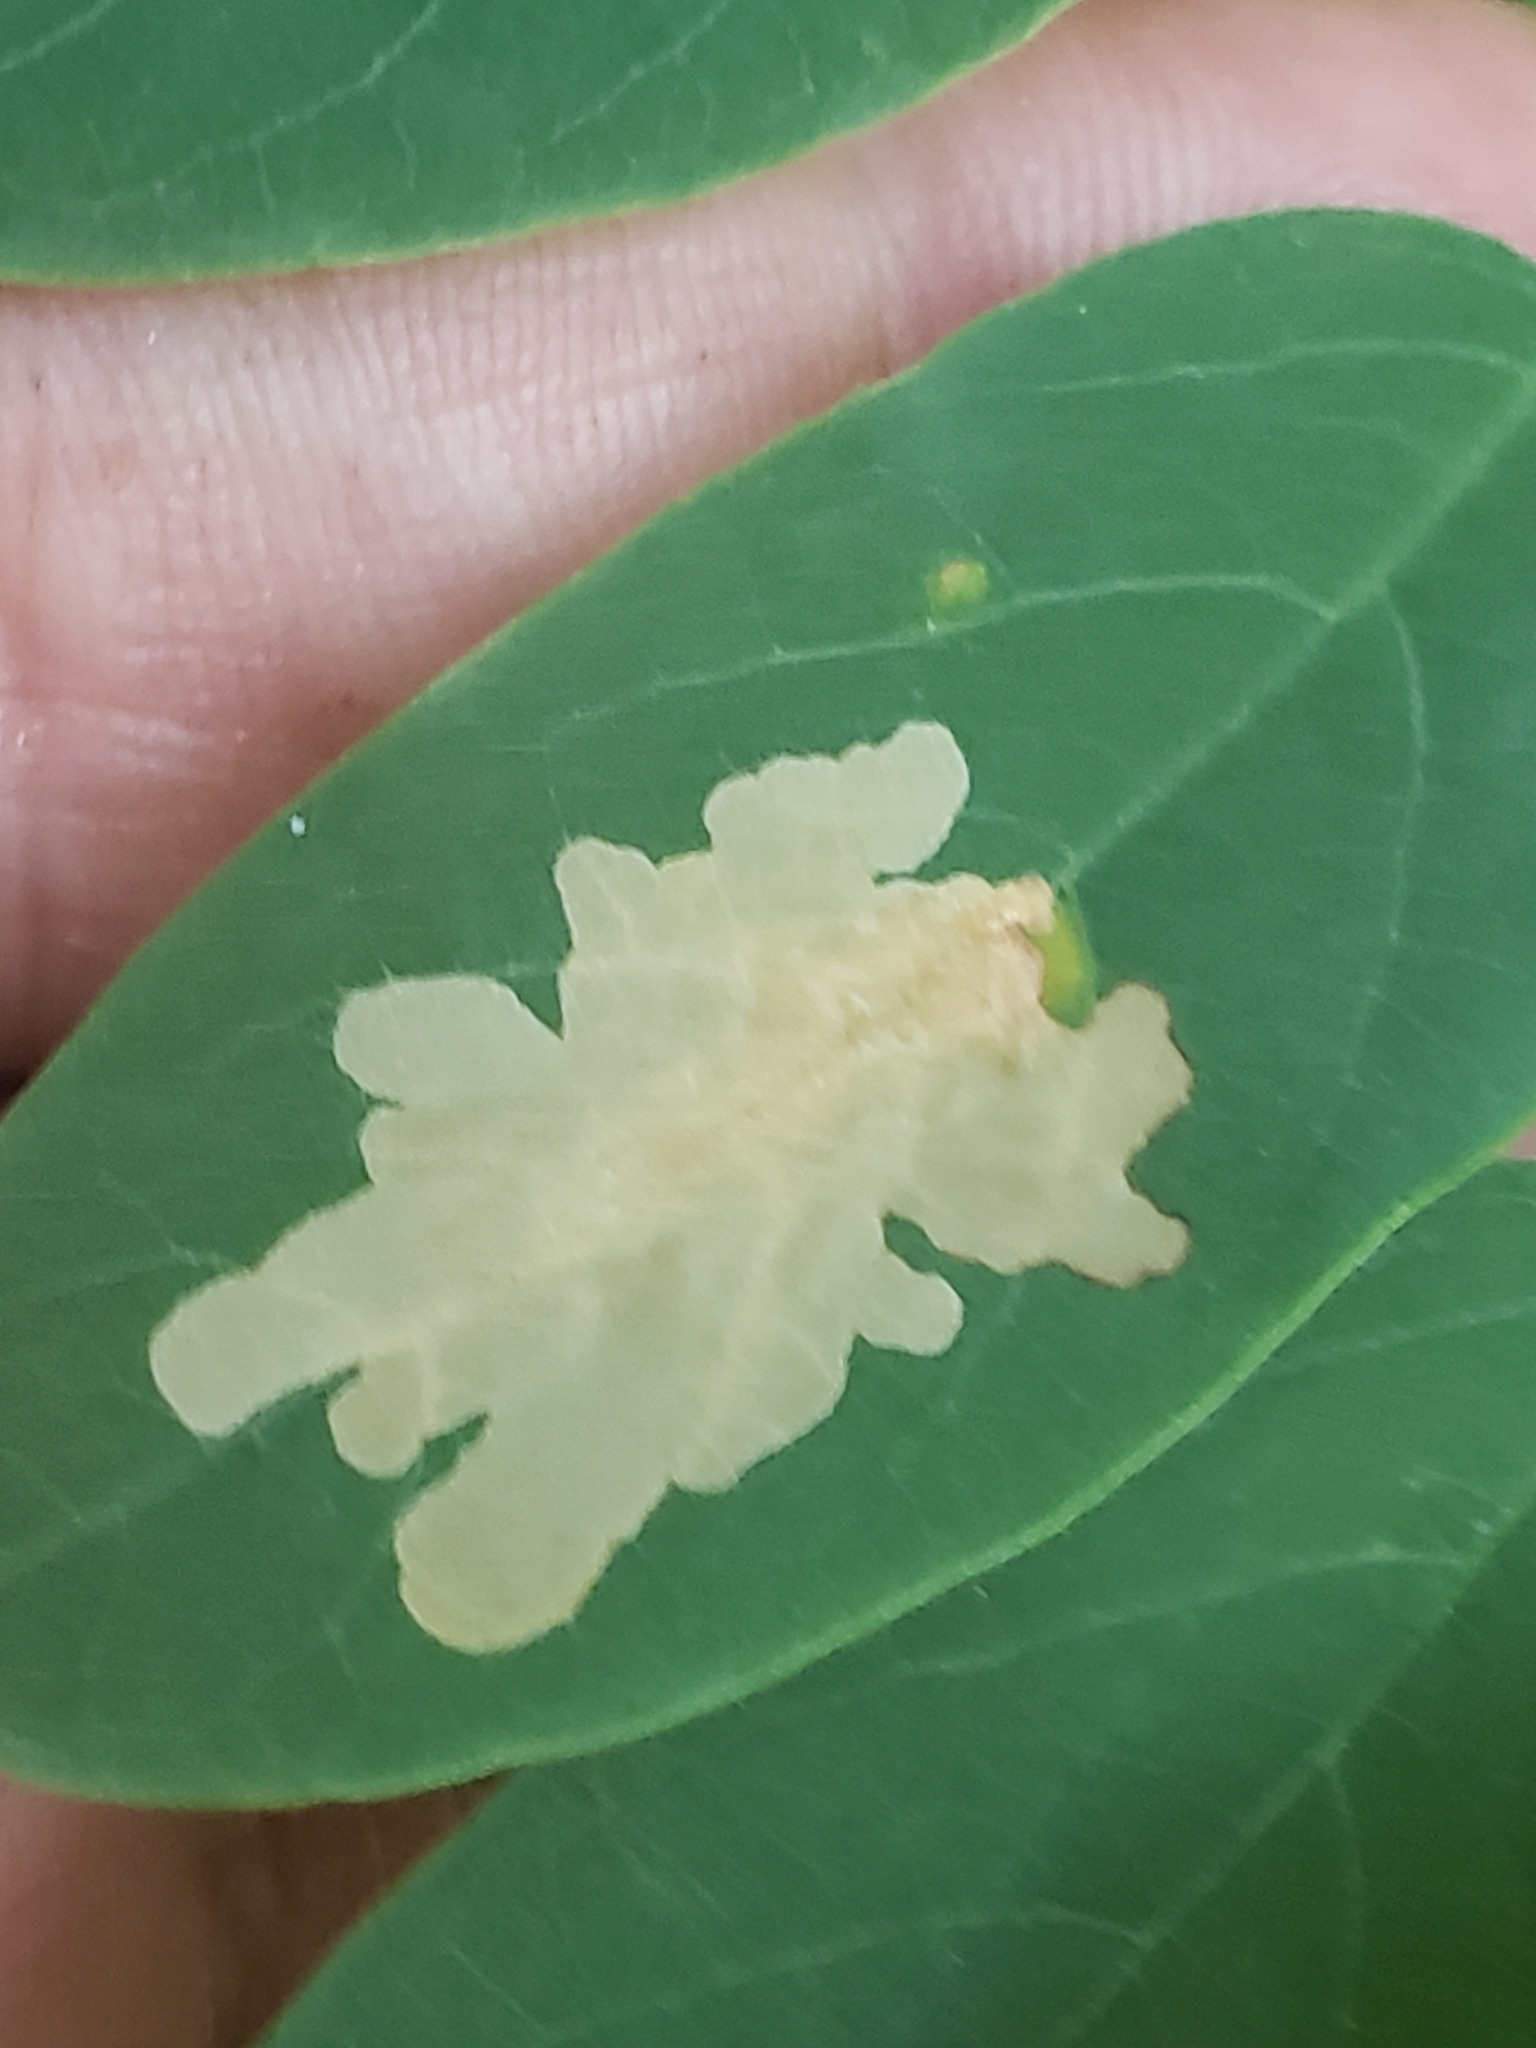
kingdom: Animalia
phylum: Arthropoda
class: Insecta
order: Lepidoptera
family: Gracillariidae
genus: Parectopa
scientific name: Parectopa robiniella
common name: Locust digitate leafminer
